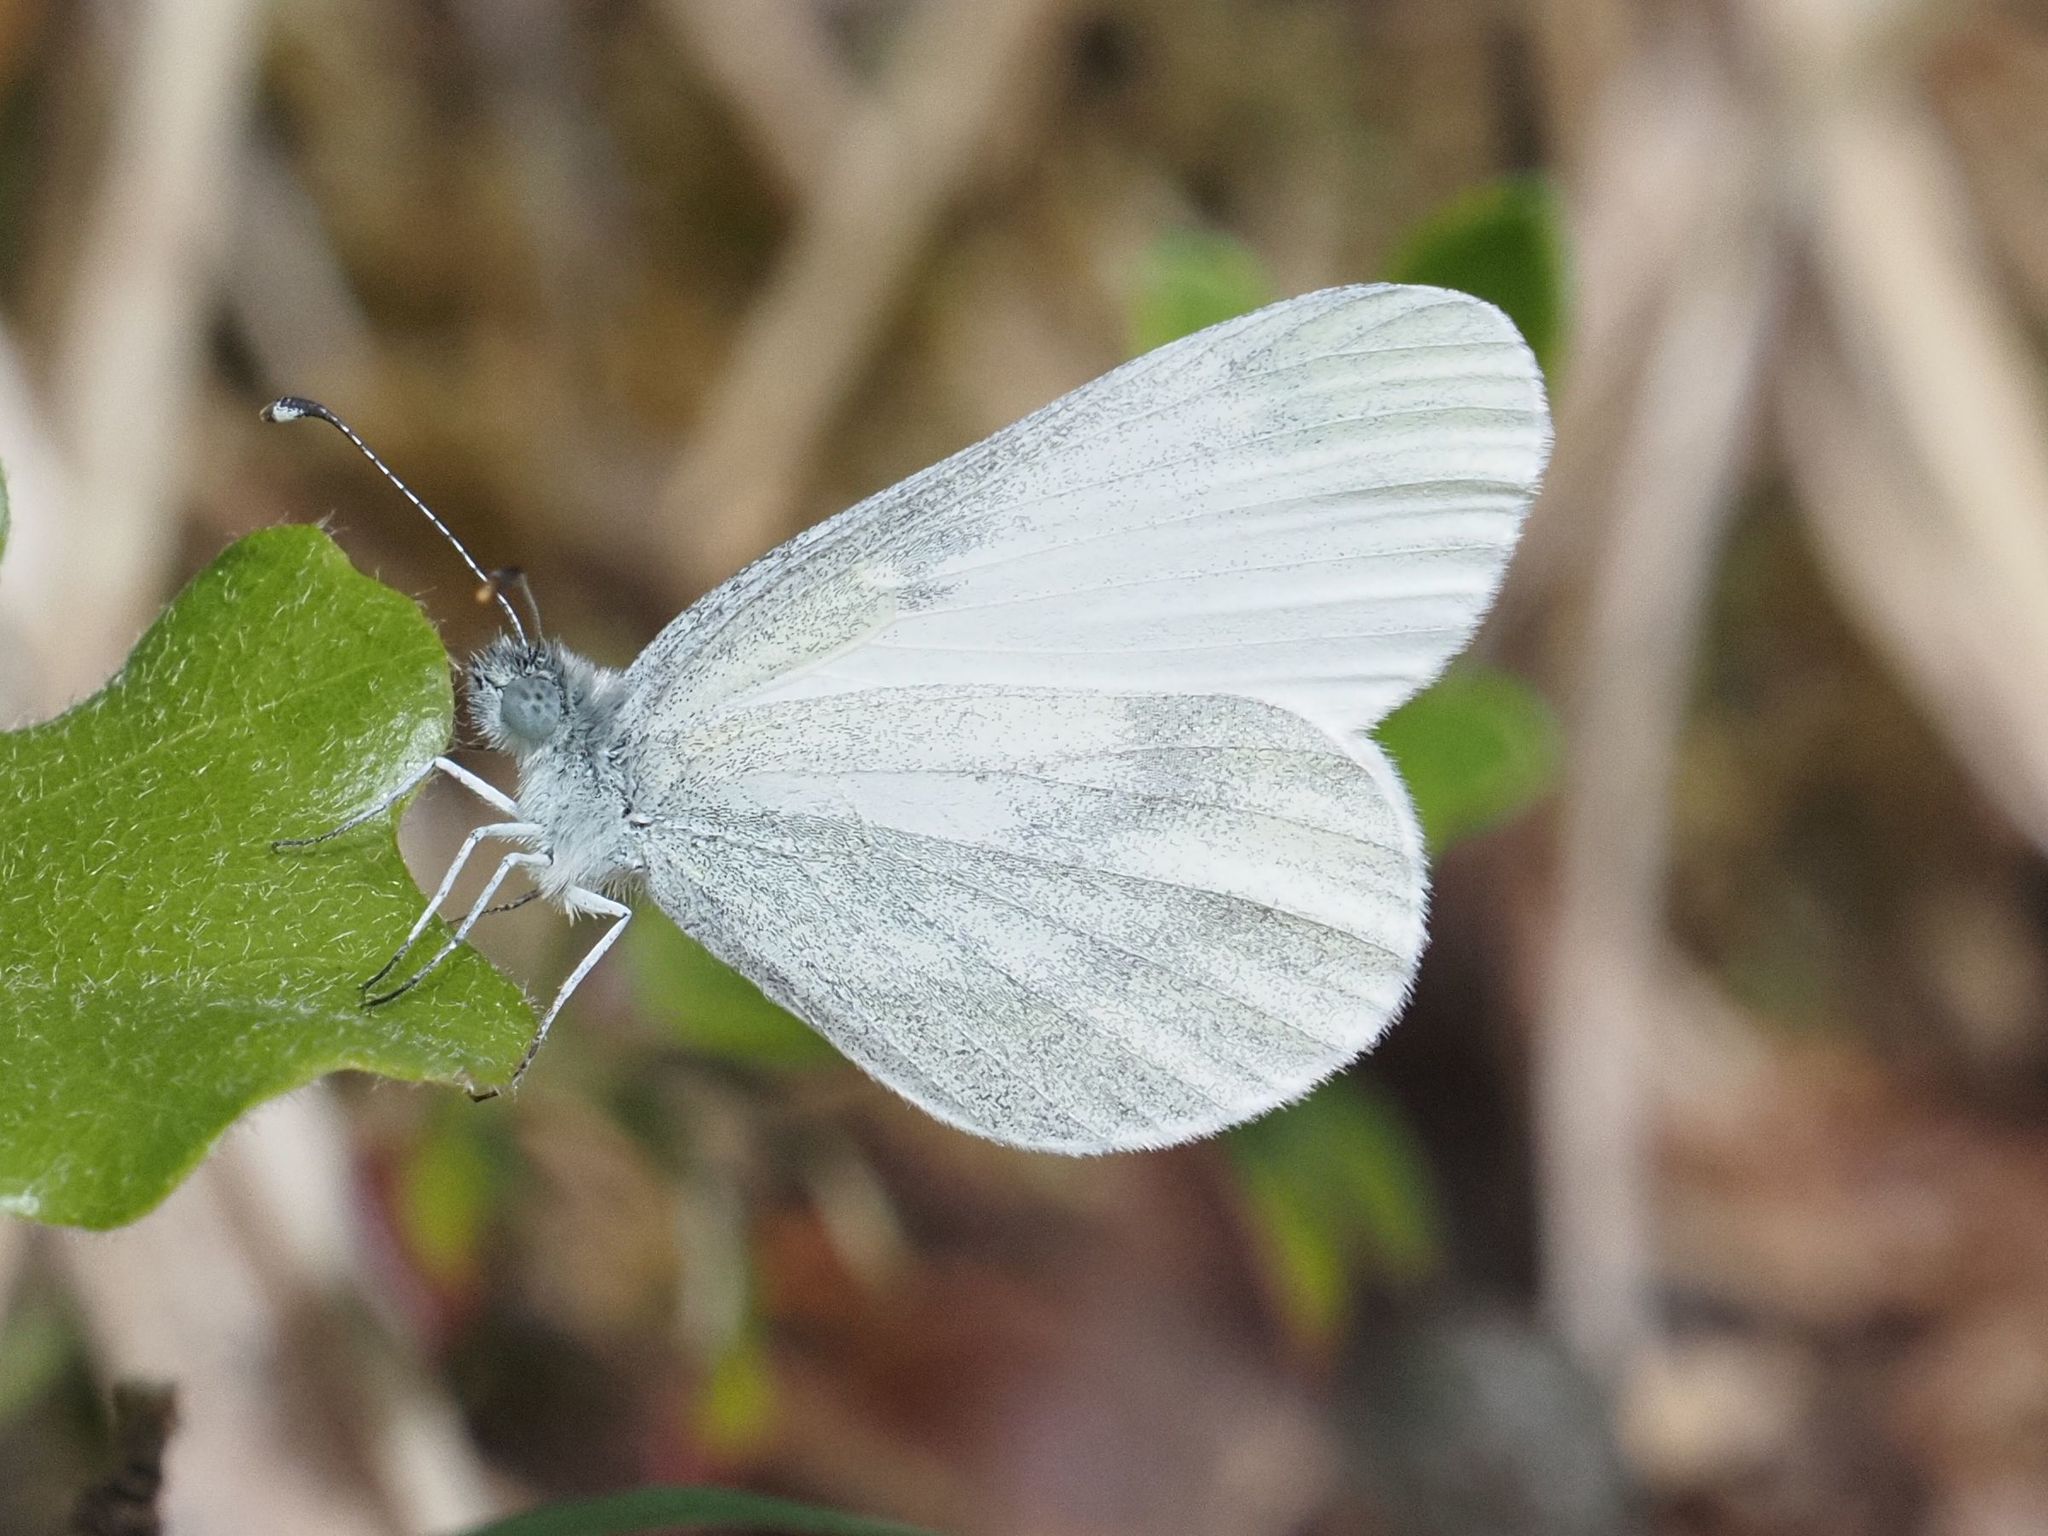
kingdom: Animalia
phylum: Arthropoda
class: Insecta
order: Lepidoptera
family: Pieridae
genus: Leptidea
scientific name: Leptidea
